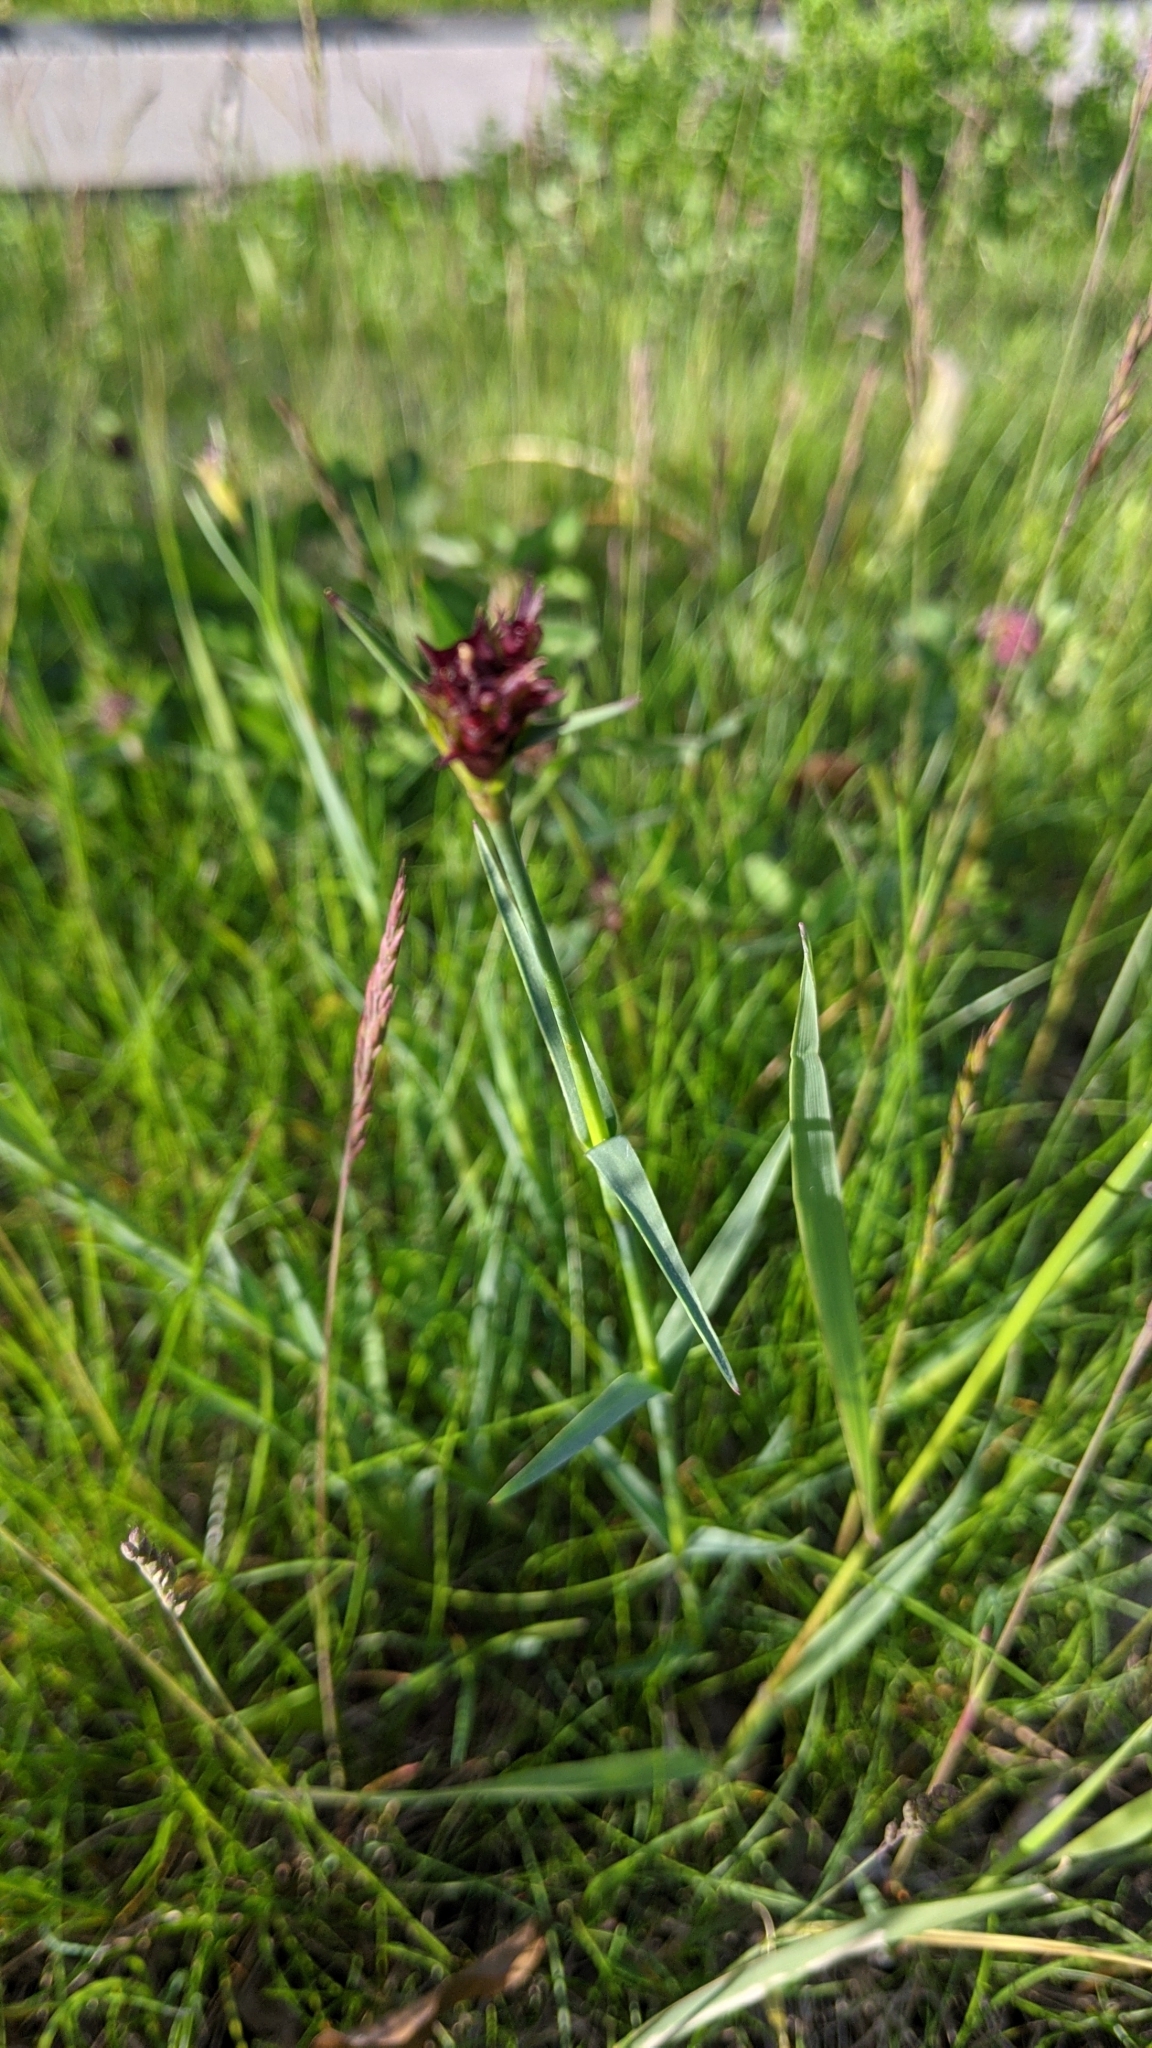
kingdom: Plantae
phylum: Tracheophyta
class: Magnoliopsida
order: Caryophyllales
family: Caryophyllaceae
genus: Dianthus
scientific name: Dianthus carthusianorum
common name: Carthusian pink
